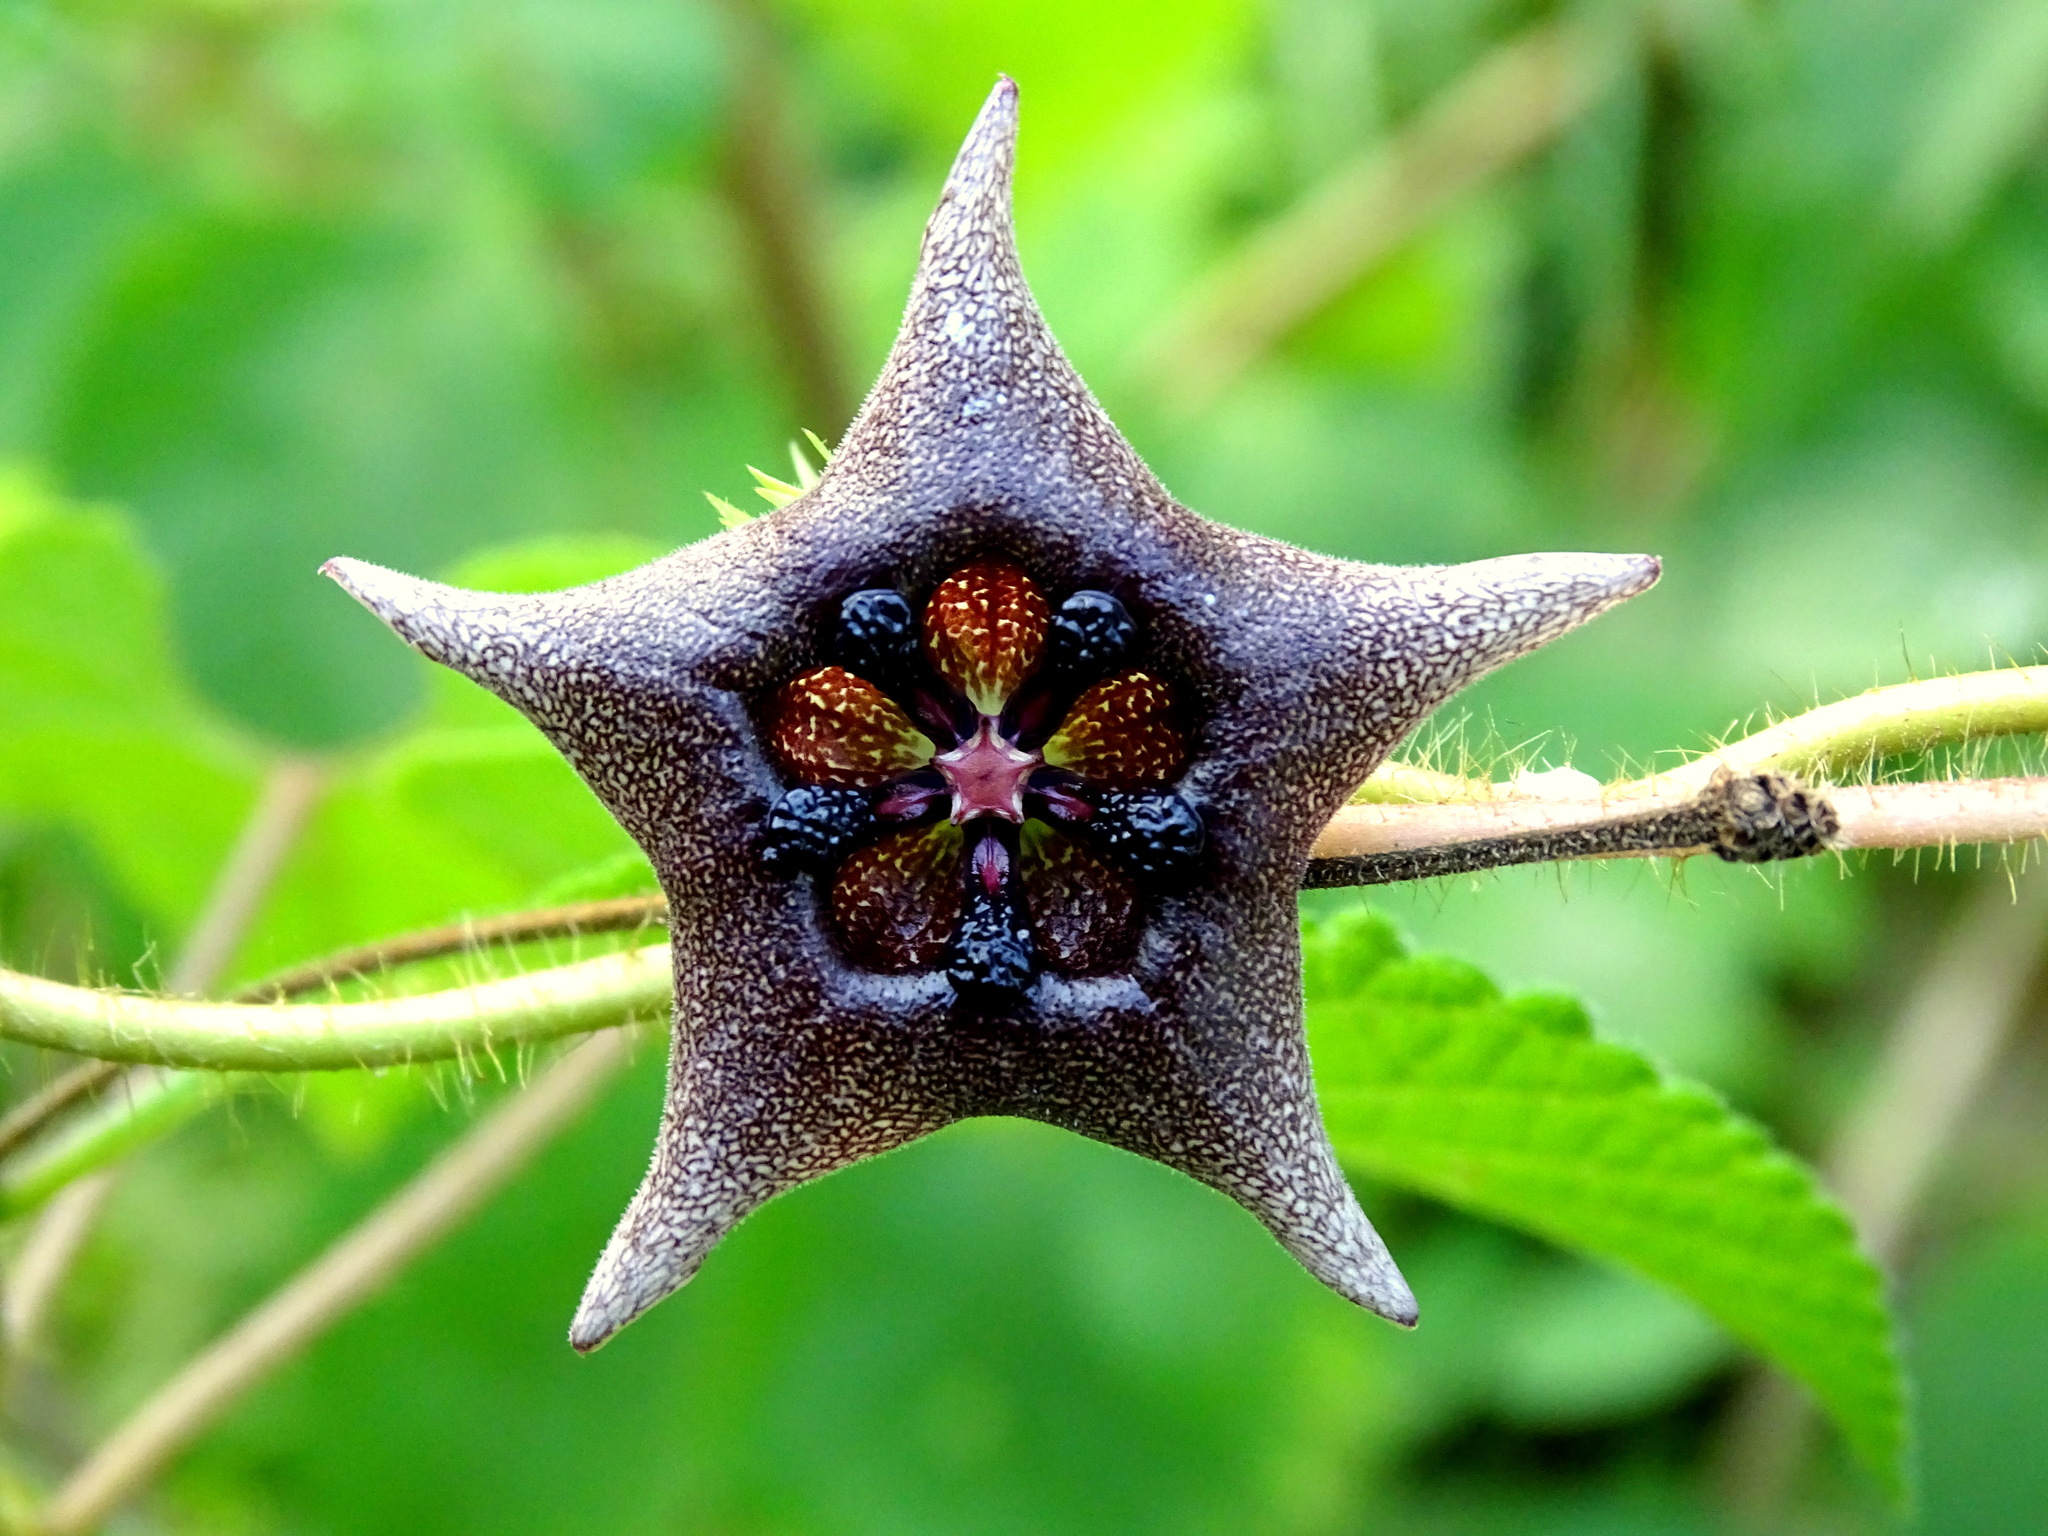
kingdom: Plantae
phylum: Tracheophyta
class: Magnoliopsida
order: Gentianales
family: Apocynaceae
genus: Dictyanthus
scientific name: Dictyanthus yucatanensis
